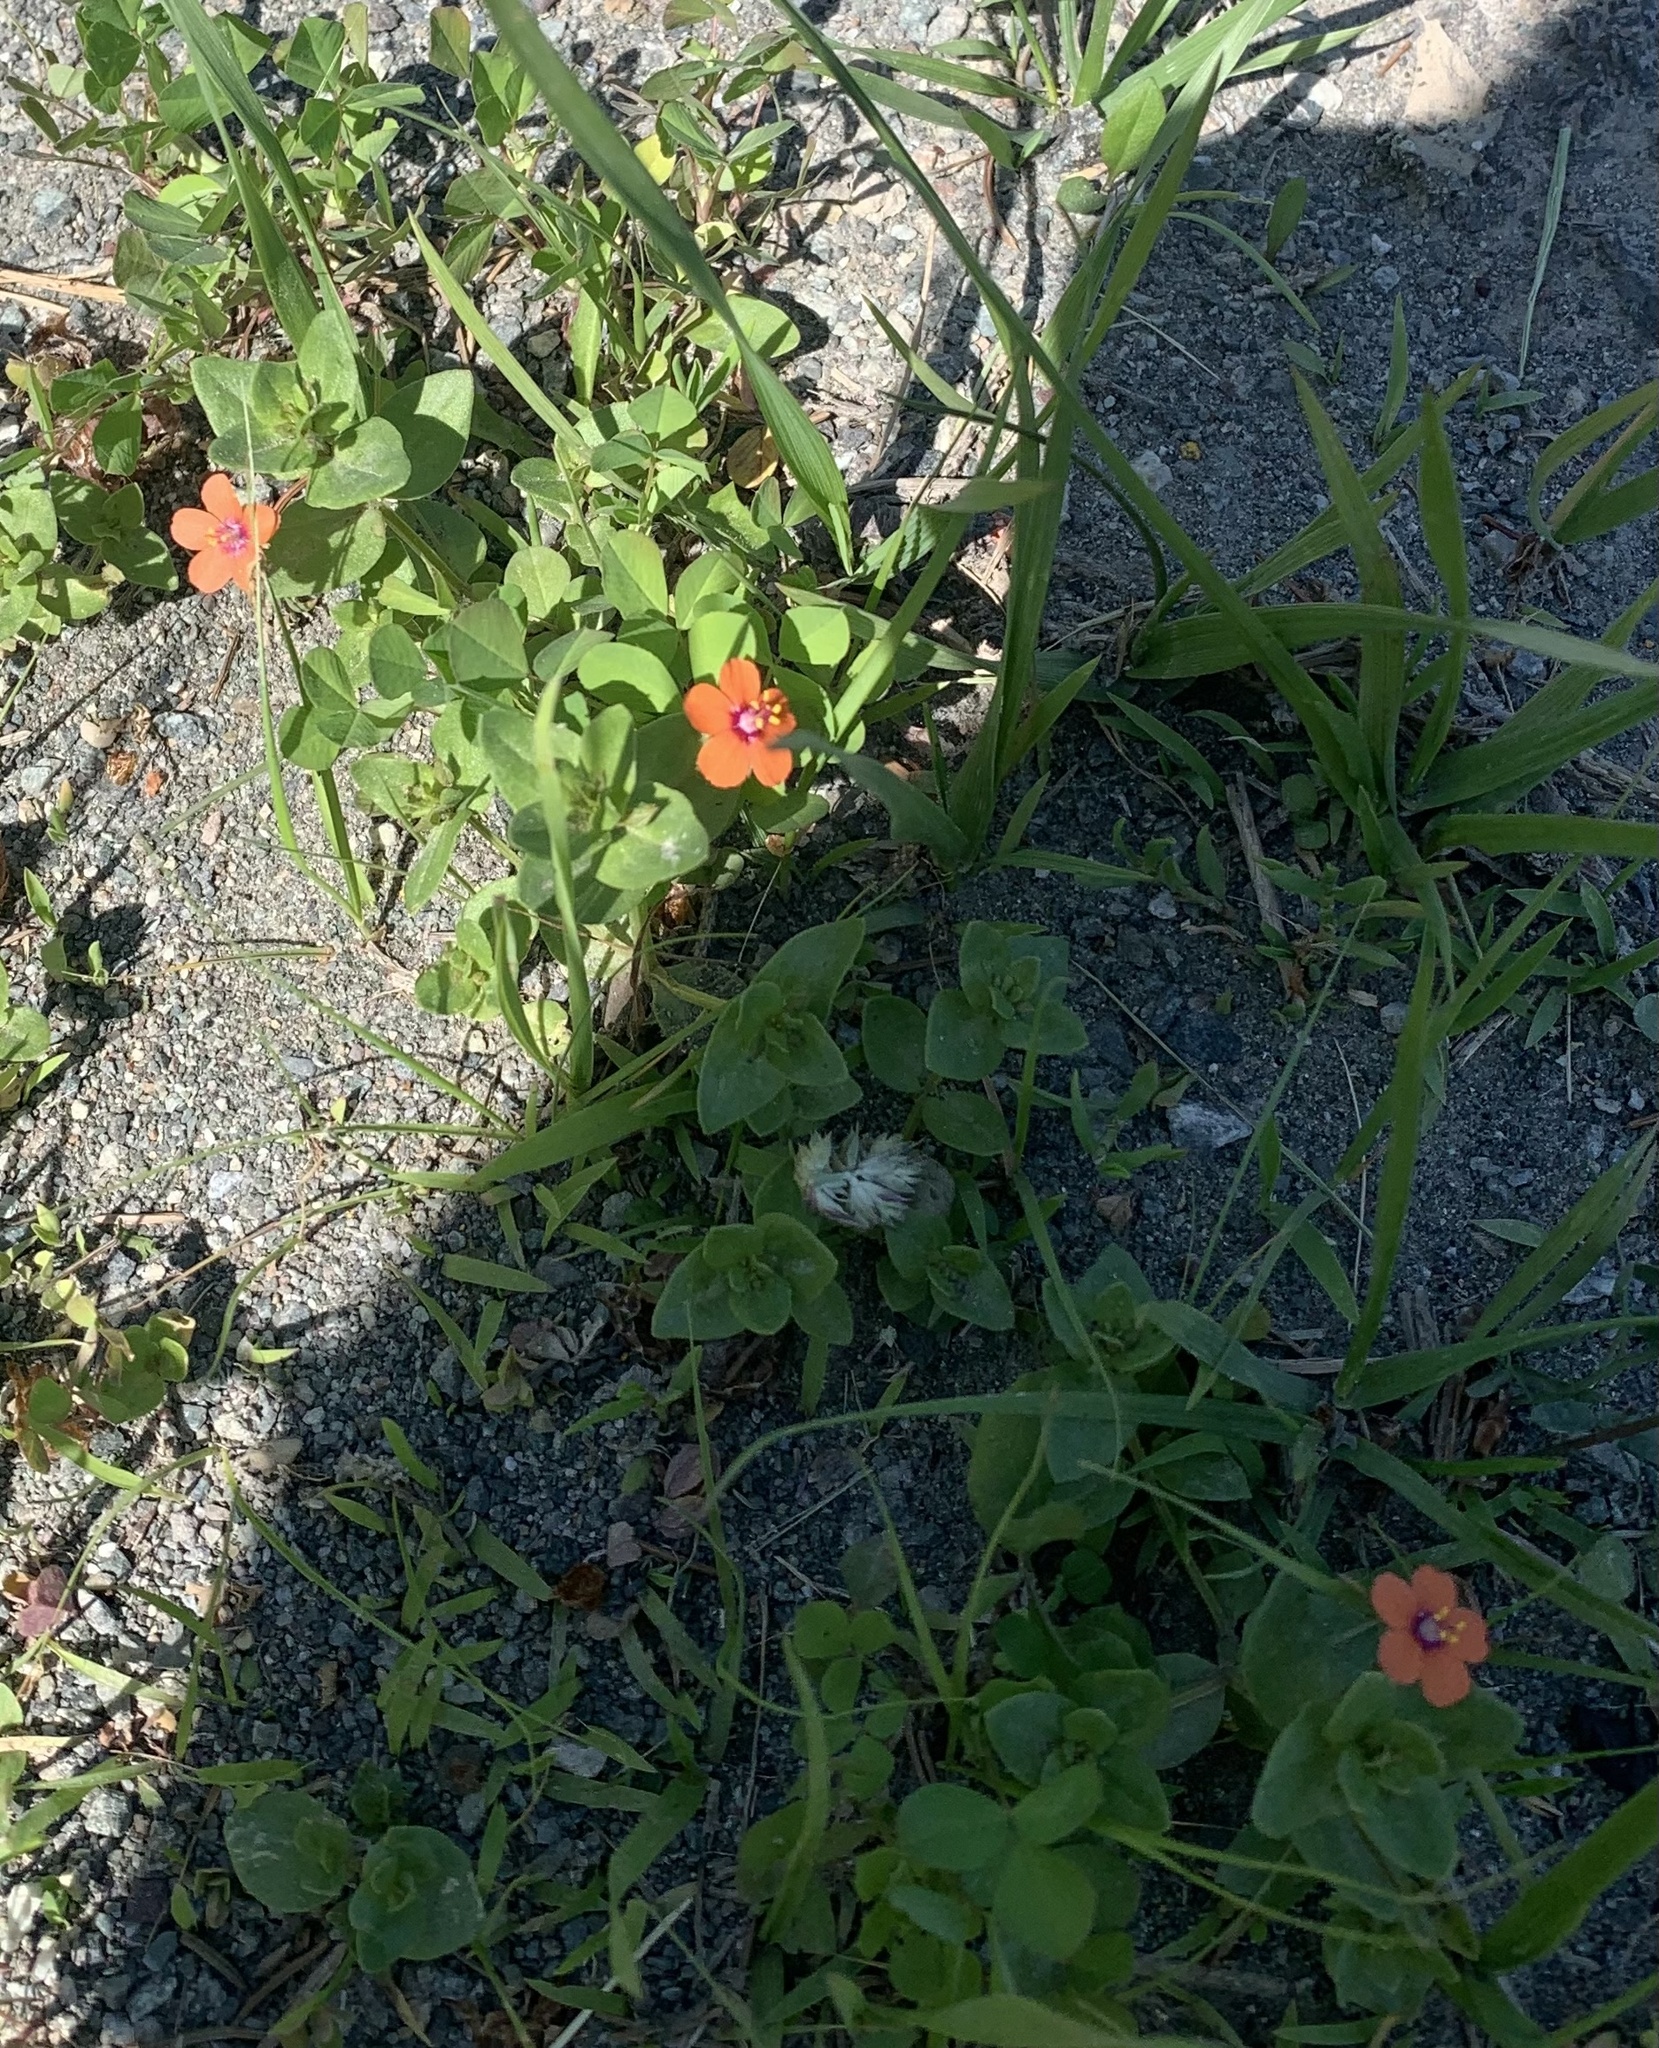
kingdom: Plantae
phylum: Tracheophyta
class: Magnoliopsida
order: Ericales
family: Primulaceae
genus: Lysimachia
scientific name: Lysimachia arvensis
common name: Scarlet pimpernel
